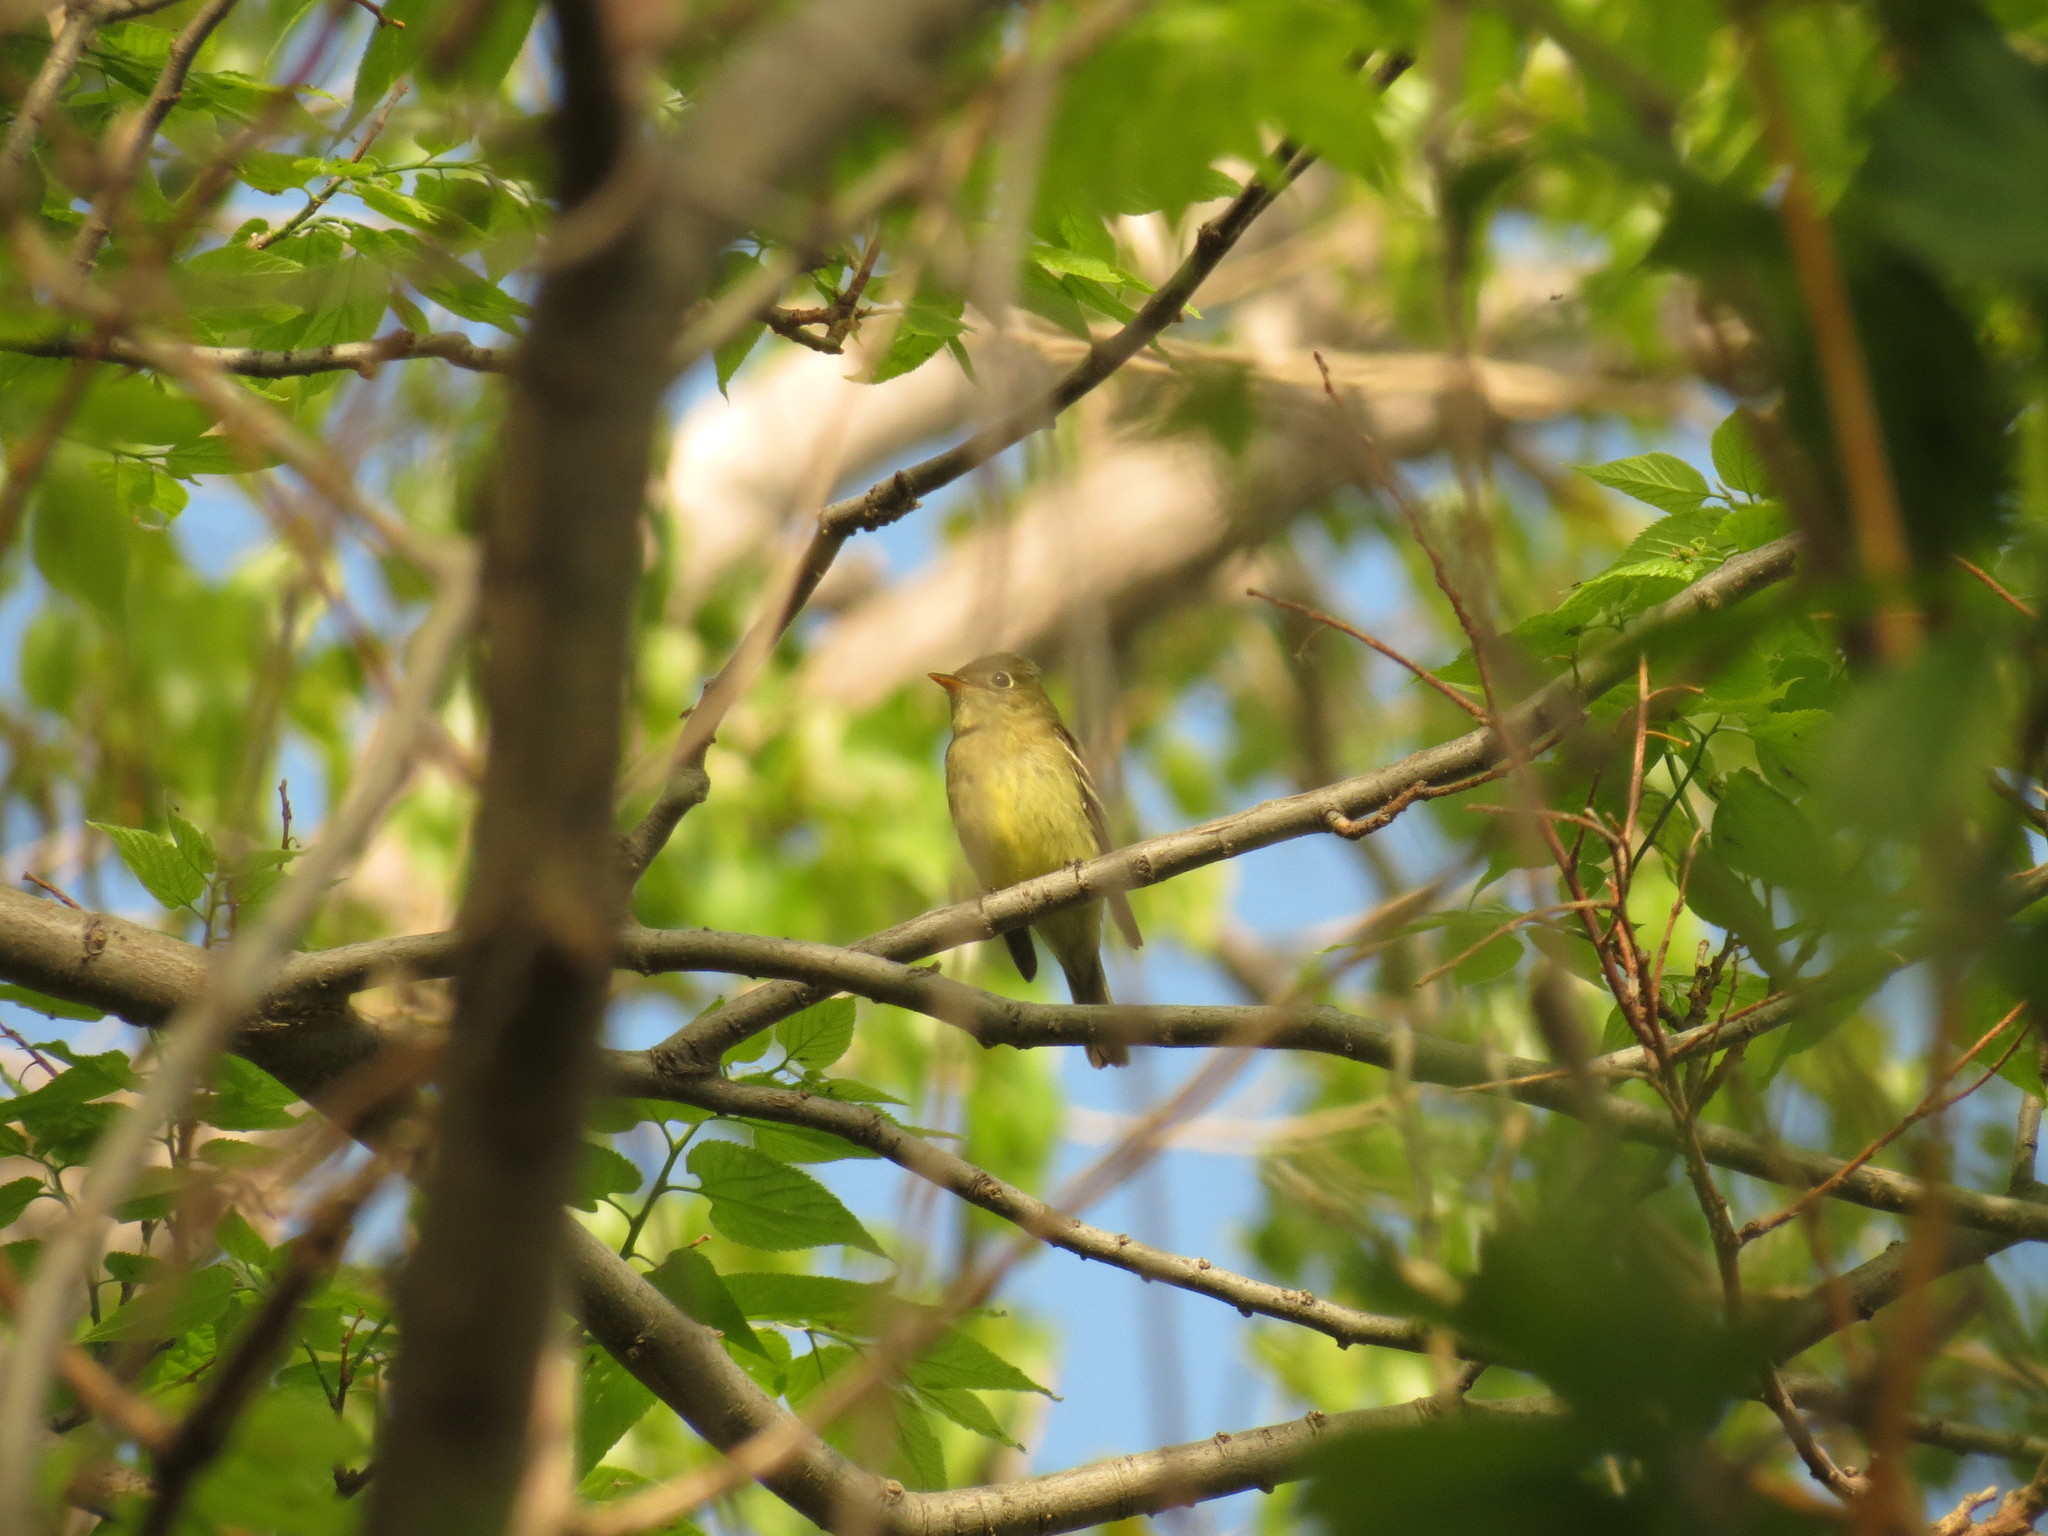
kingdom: Animalia
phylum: Chordata
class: Aves
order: Passeriformes
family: Tyrannidae
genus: Empidonax
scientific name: Empidonax flaviventris
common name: Yellow-bellied flycatcher
